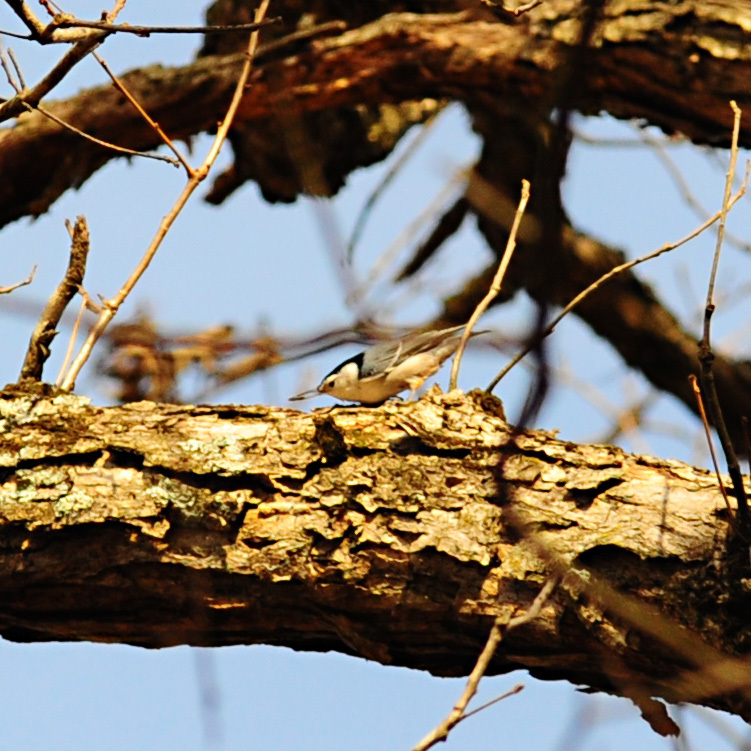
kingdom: Animalia
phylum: Chordata
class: Aves
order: Passeriformes
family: Sittidae
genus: Sitta
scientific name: Sitta carolinensis
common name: White-breasted nuthatch
